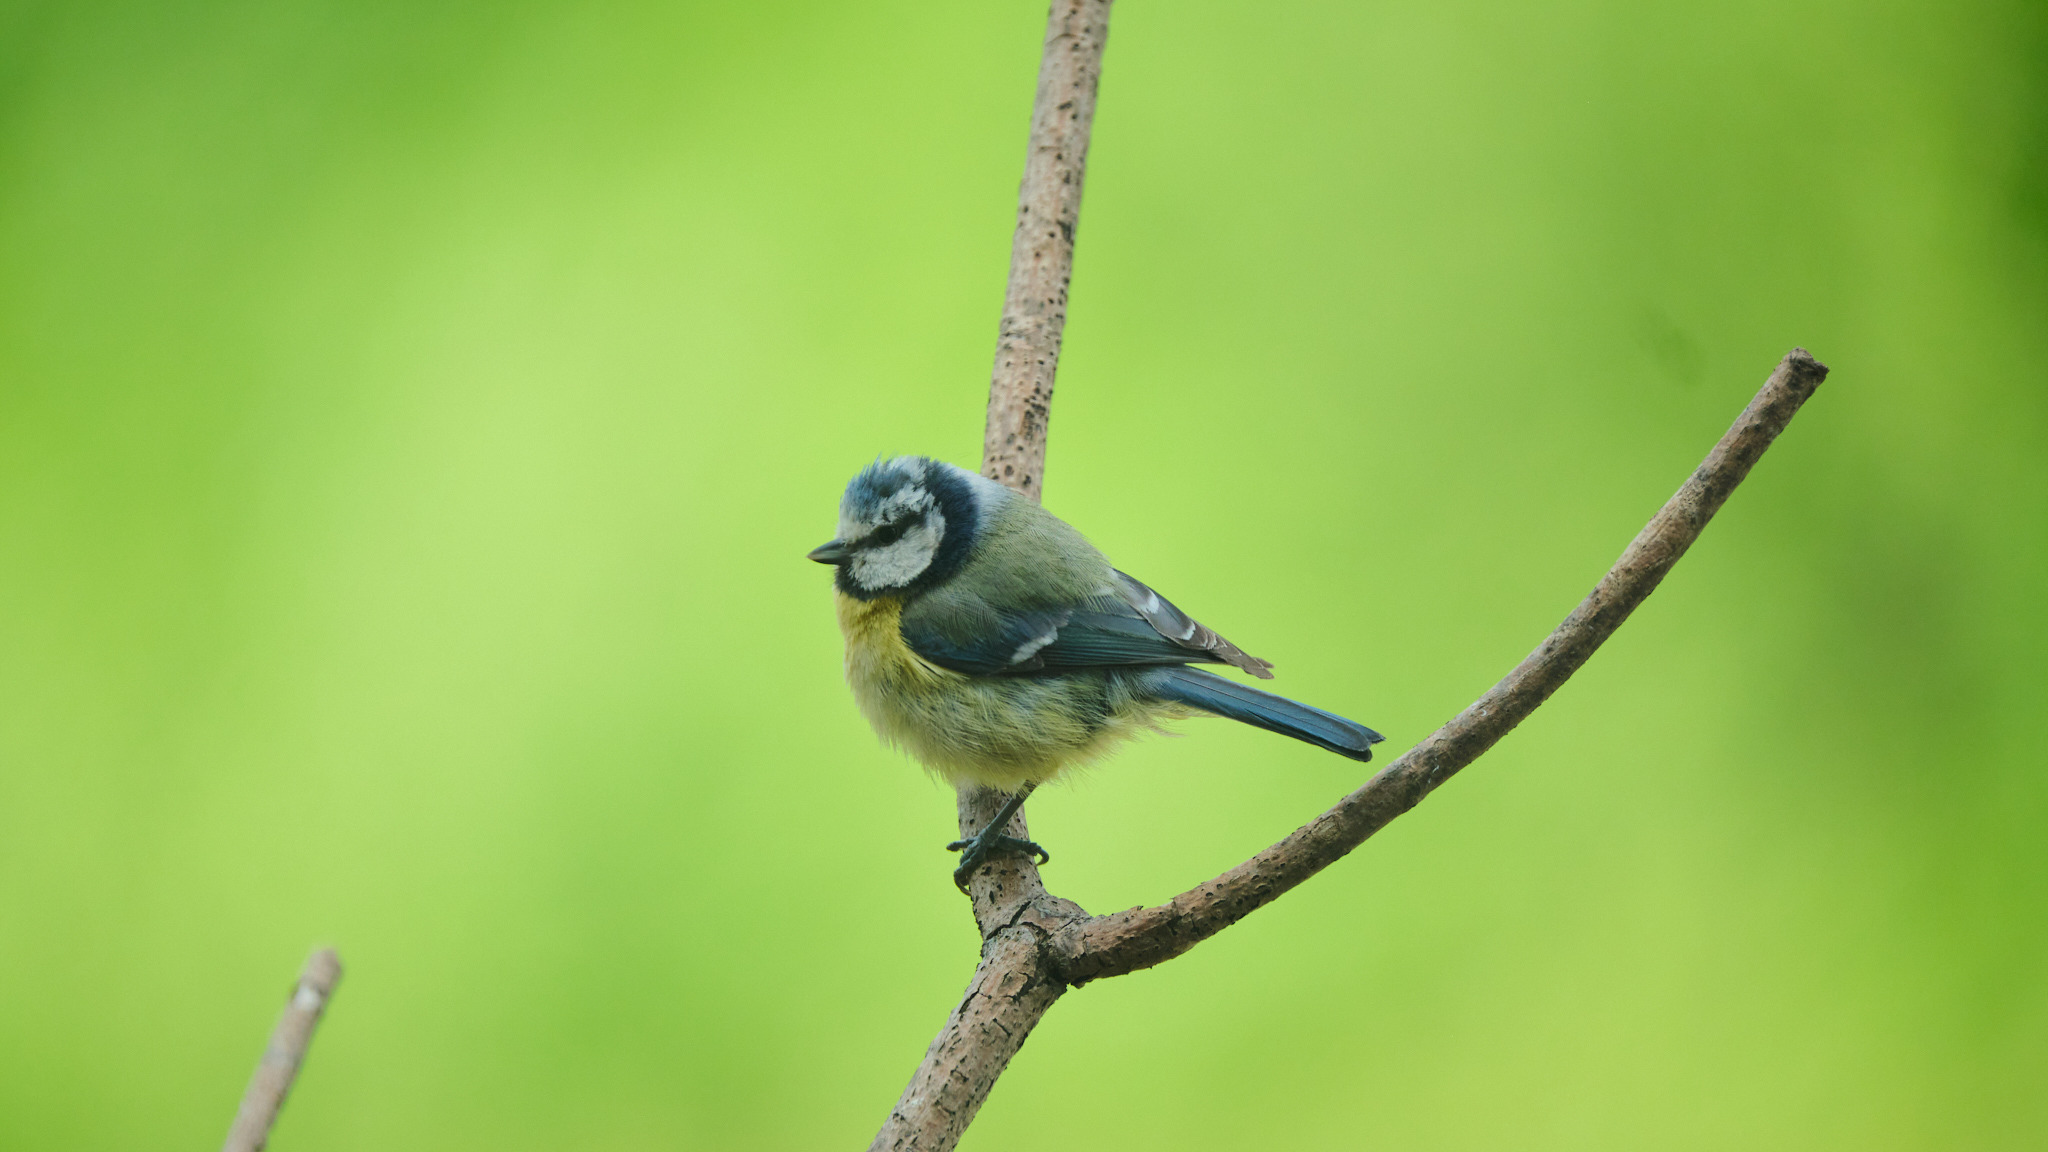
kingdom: Animalia
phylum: Chordata
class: Aves
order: Passeriformes
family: Paridae
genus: Cyanistes
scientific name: Cyanistes caeruleus
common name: Eurasian blue tit
